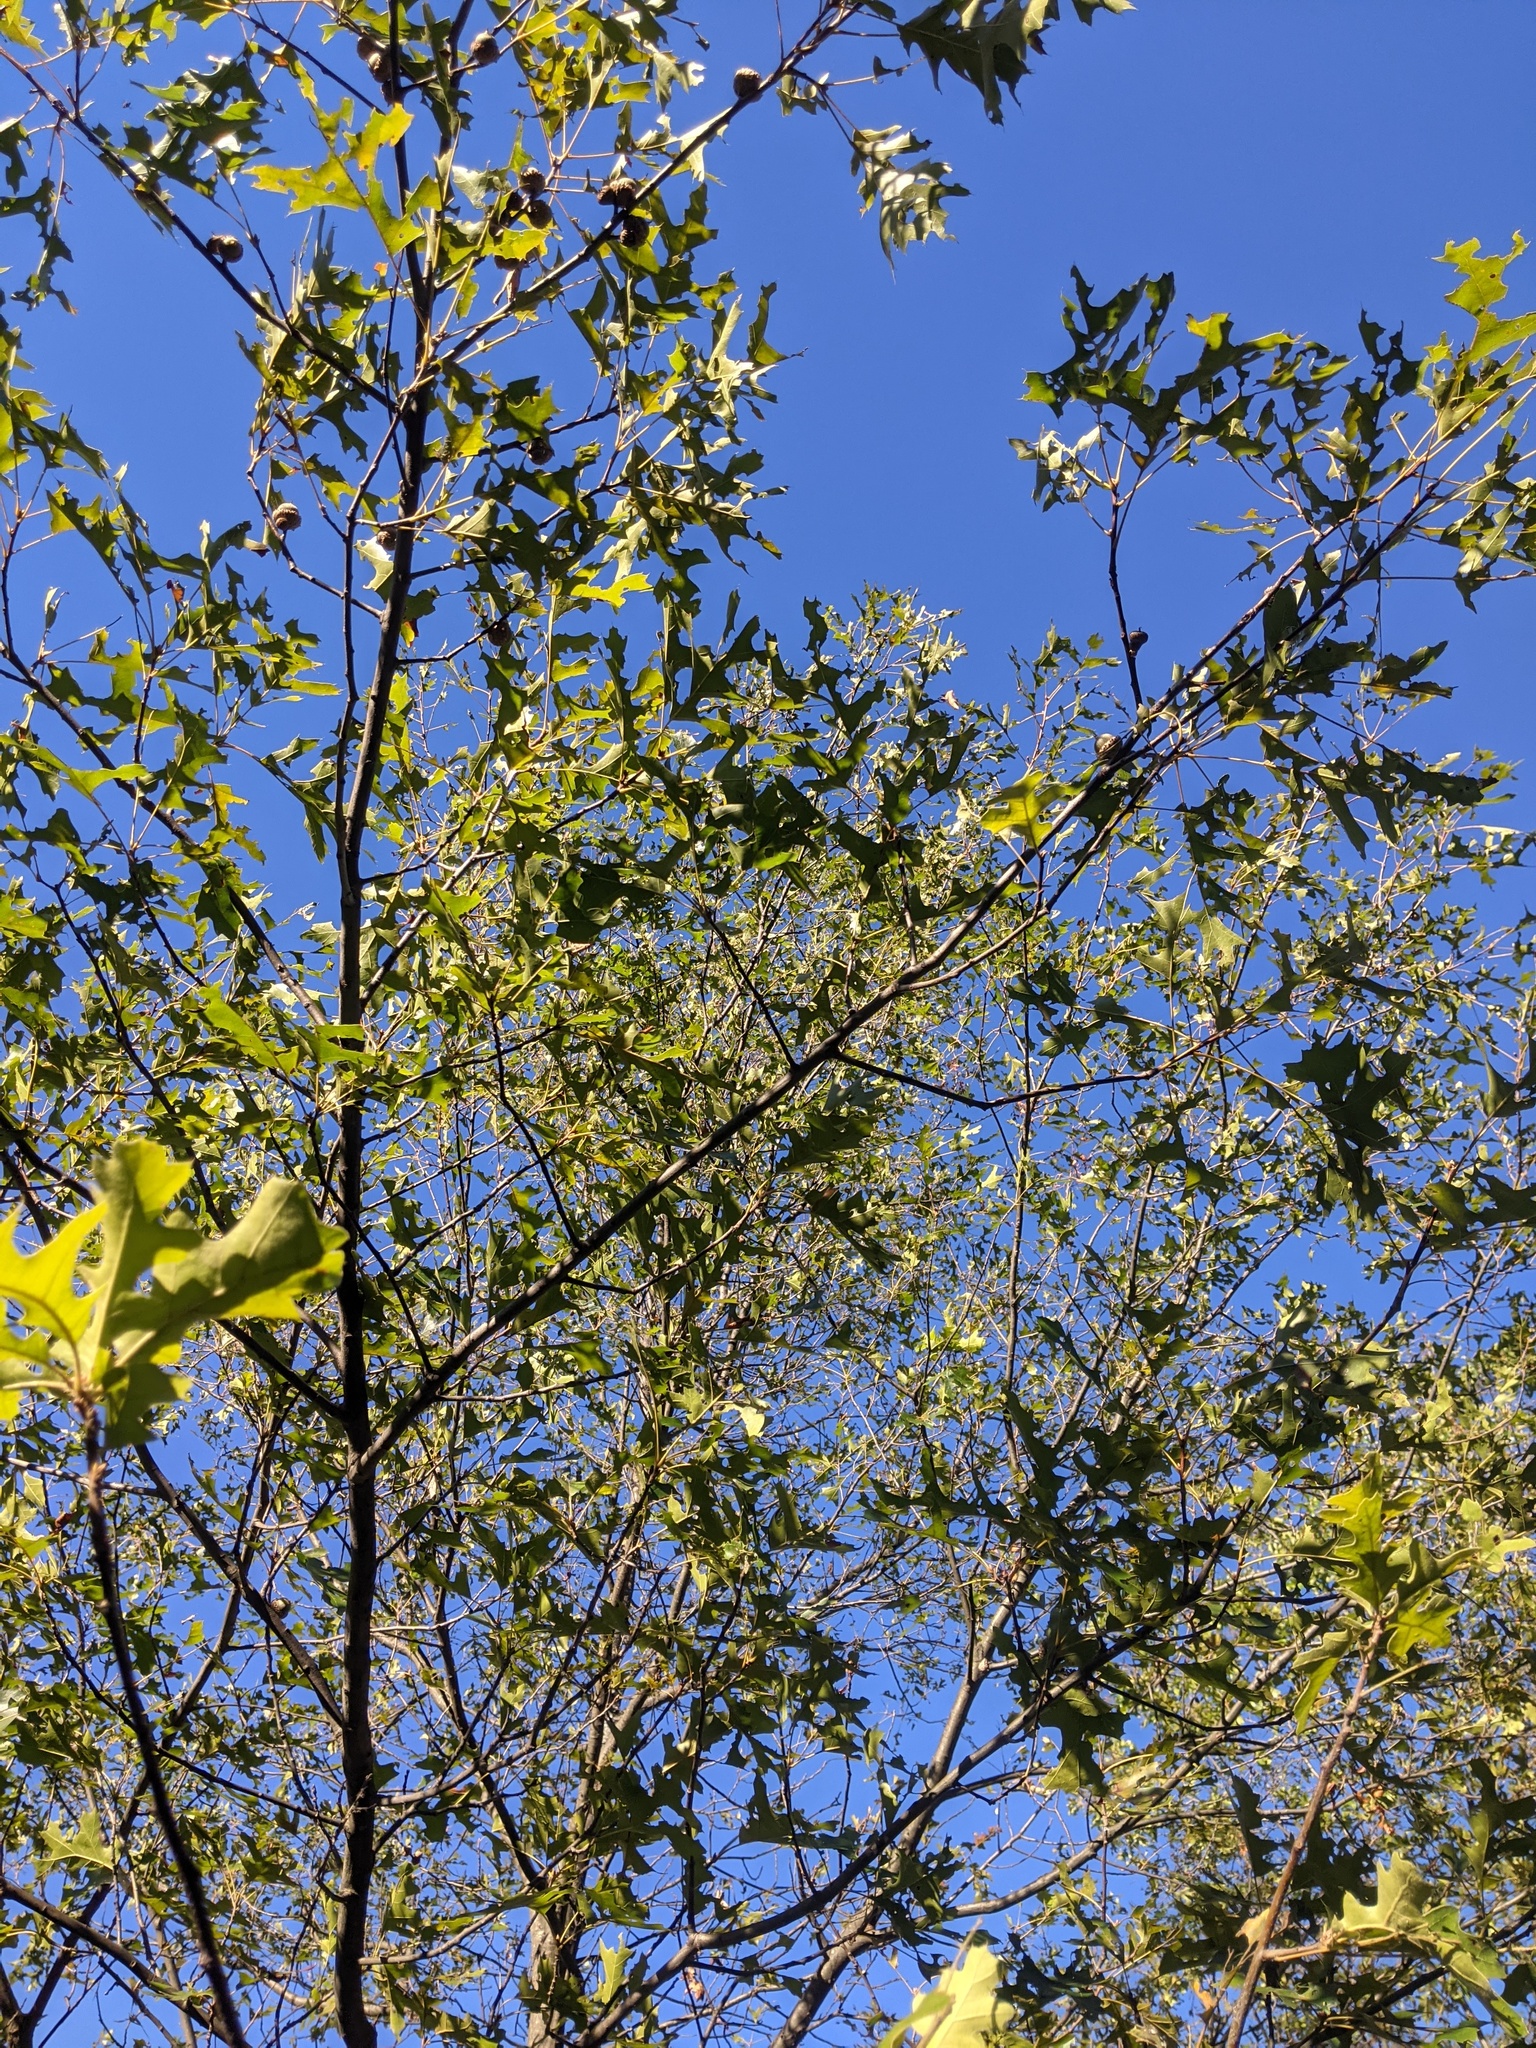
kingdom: Plantae
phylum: Tracheophyta
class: Magnoliopsida
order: Fagales
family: Fagaceae
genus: Quercus
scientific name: Quercus velutina
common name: Black oak
